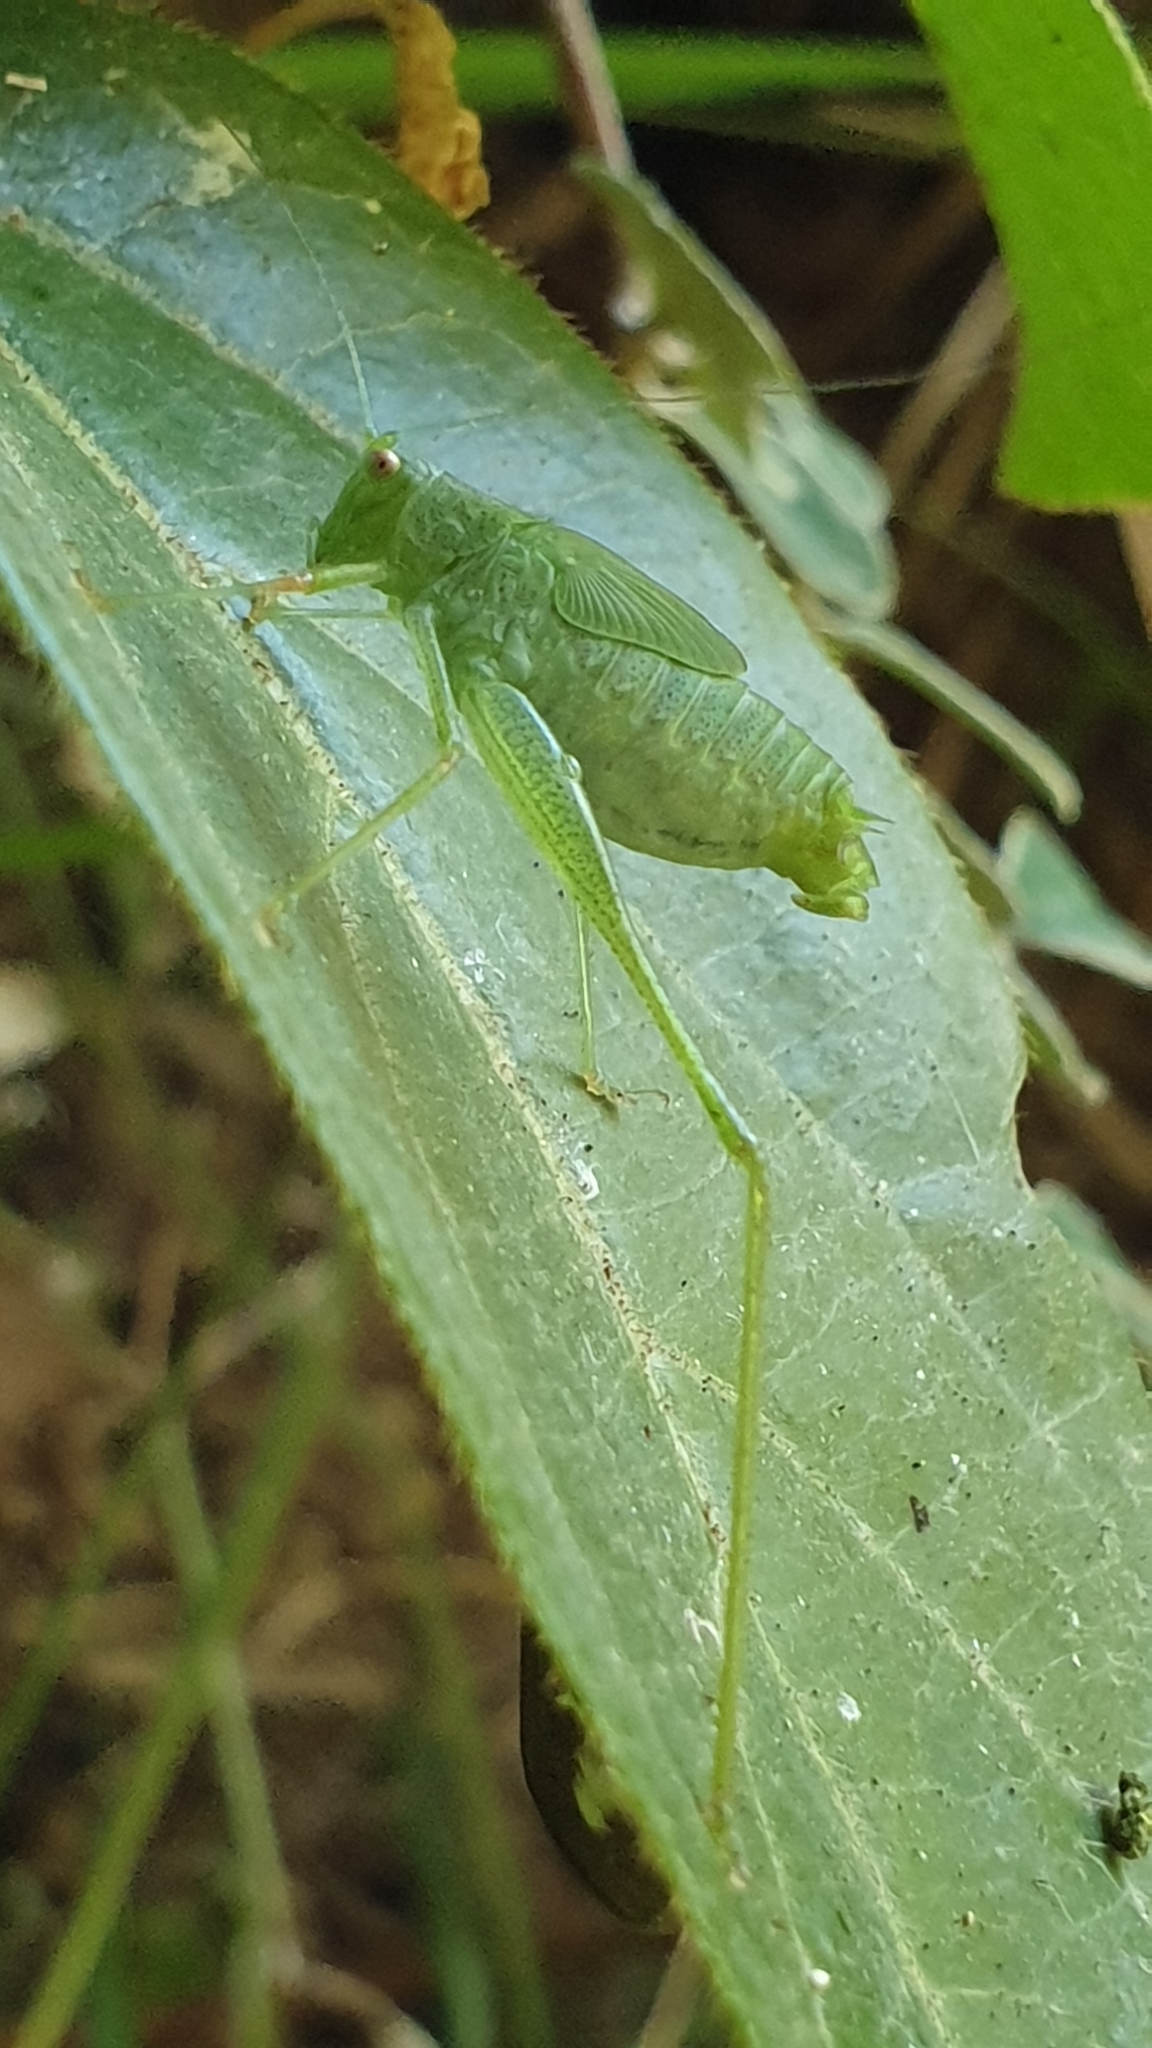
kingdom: Animalia
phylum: Arthropoda
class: Insecta
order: Orthoptera
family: Tettigoniidae
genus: Phaneroptera
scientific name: Phaneroptera nana
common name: Southern sickle bush-cricket
